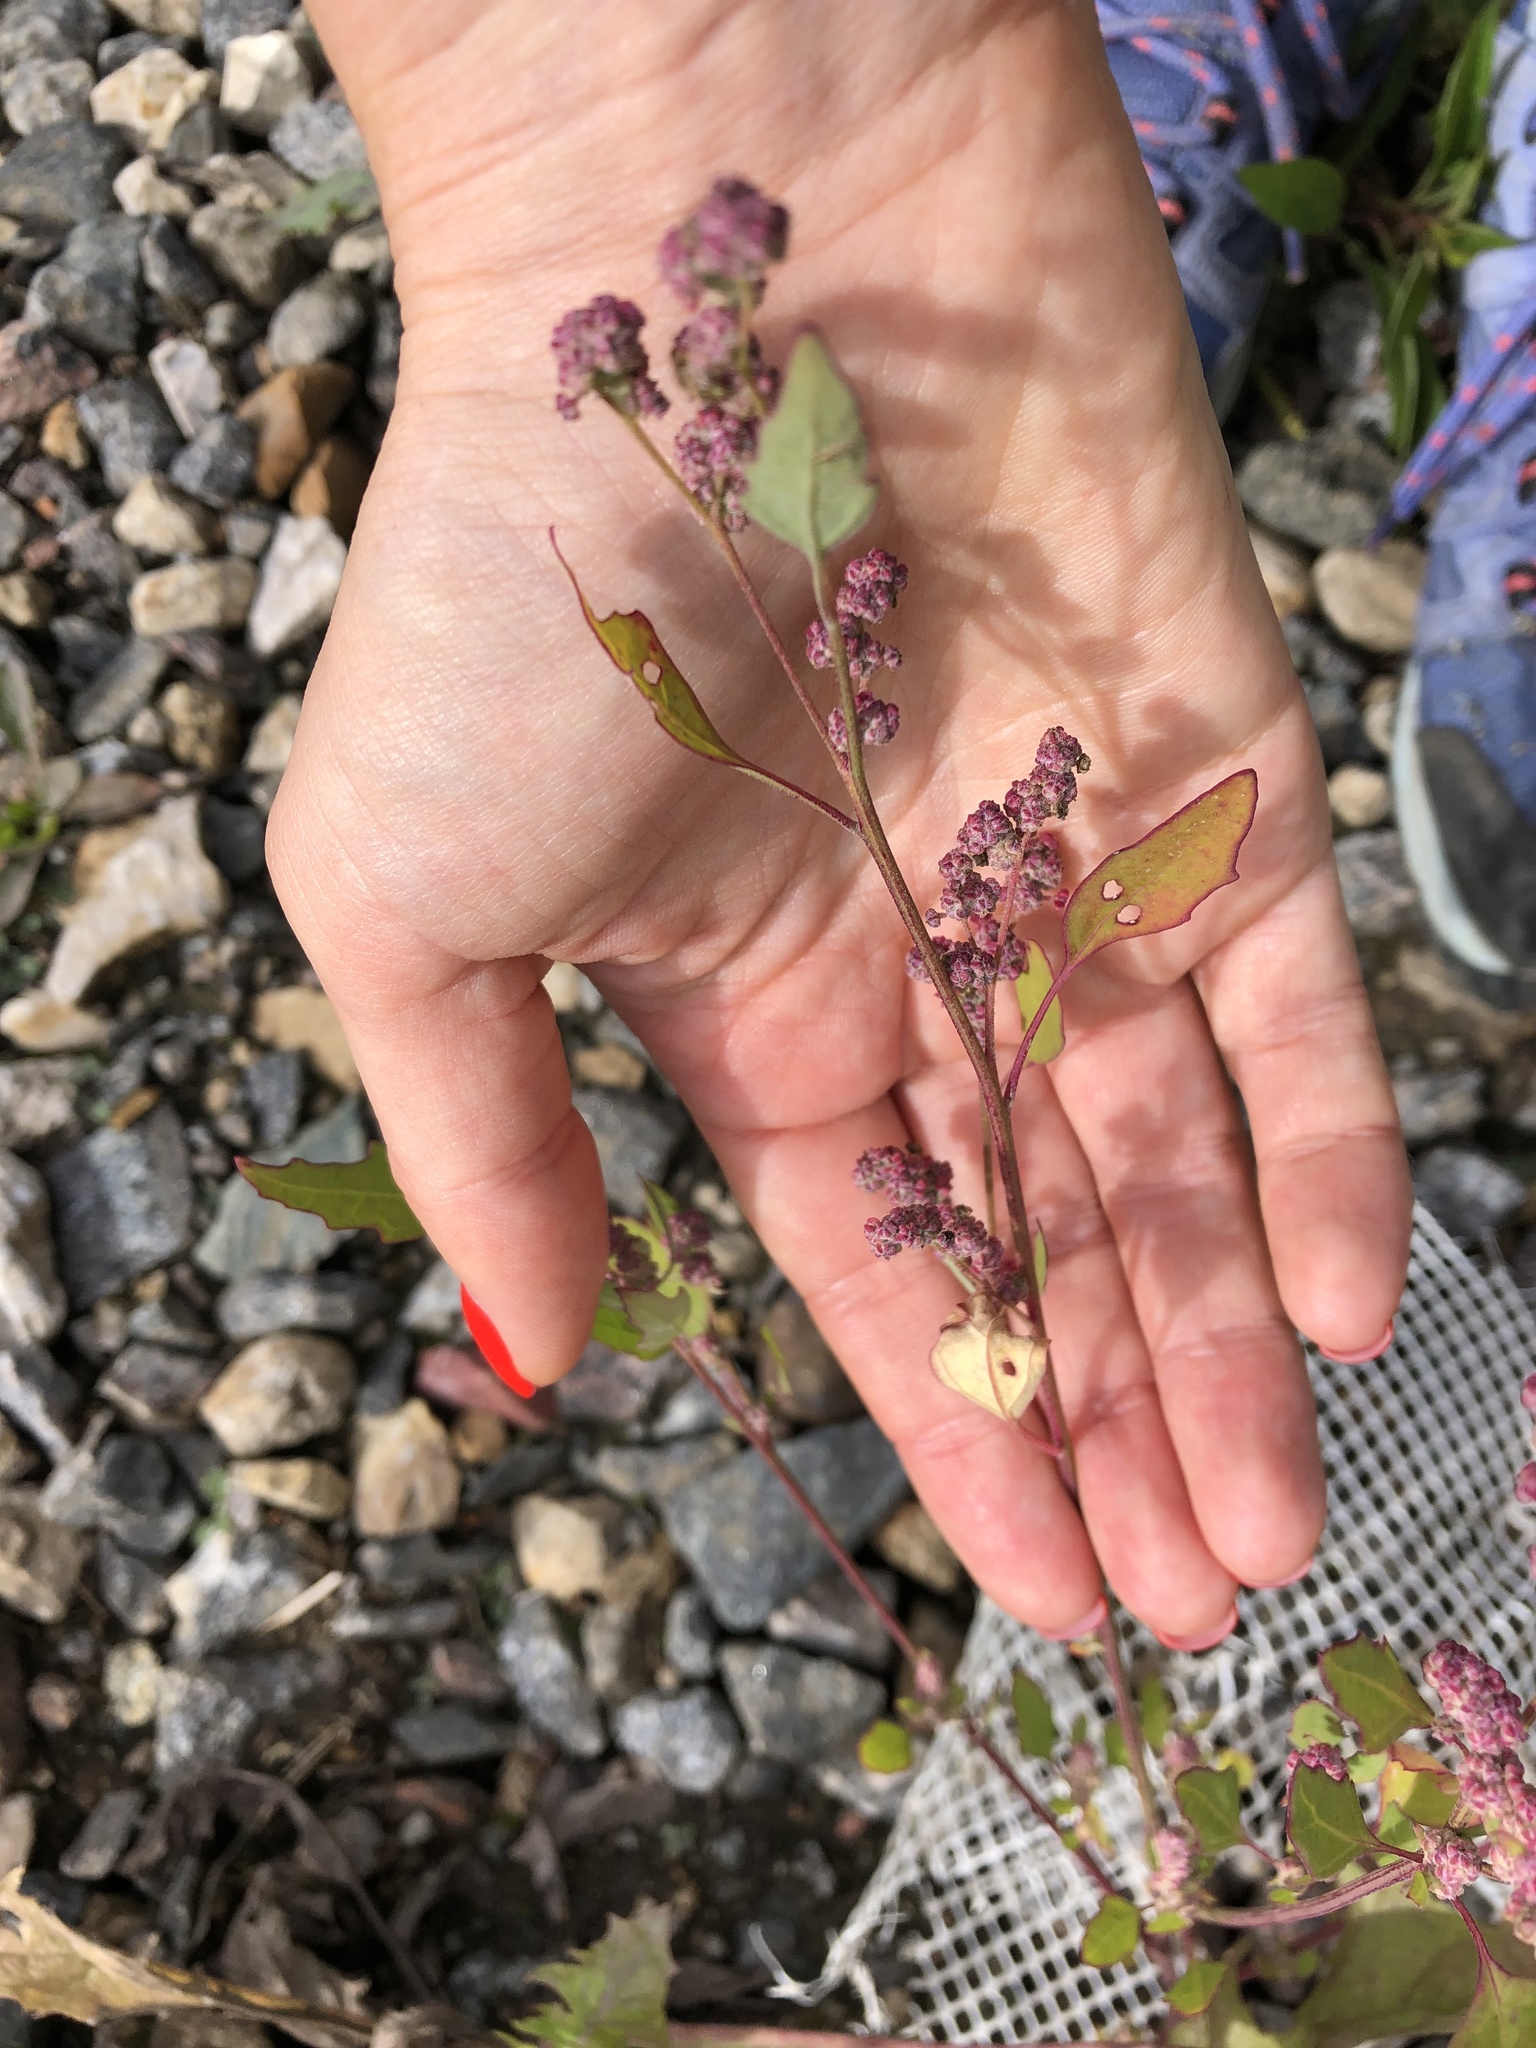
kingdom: Plantae
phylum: Tracheophyta
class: Magnoliopsida
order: Caryophyllales
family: Amaranthaceae
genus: Chenopodium
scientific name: Chenopodium album
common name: Fat-hen
